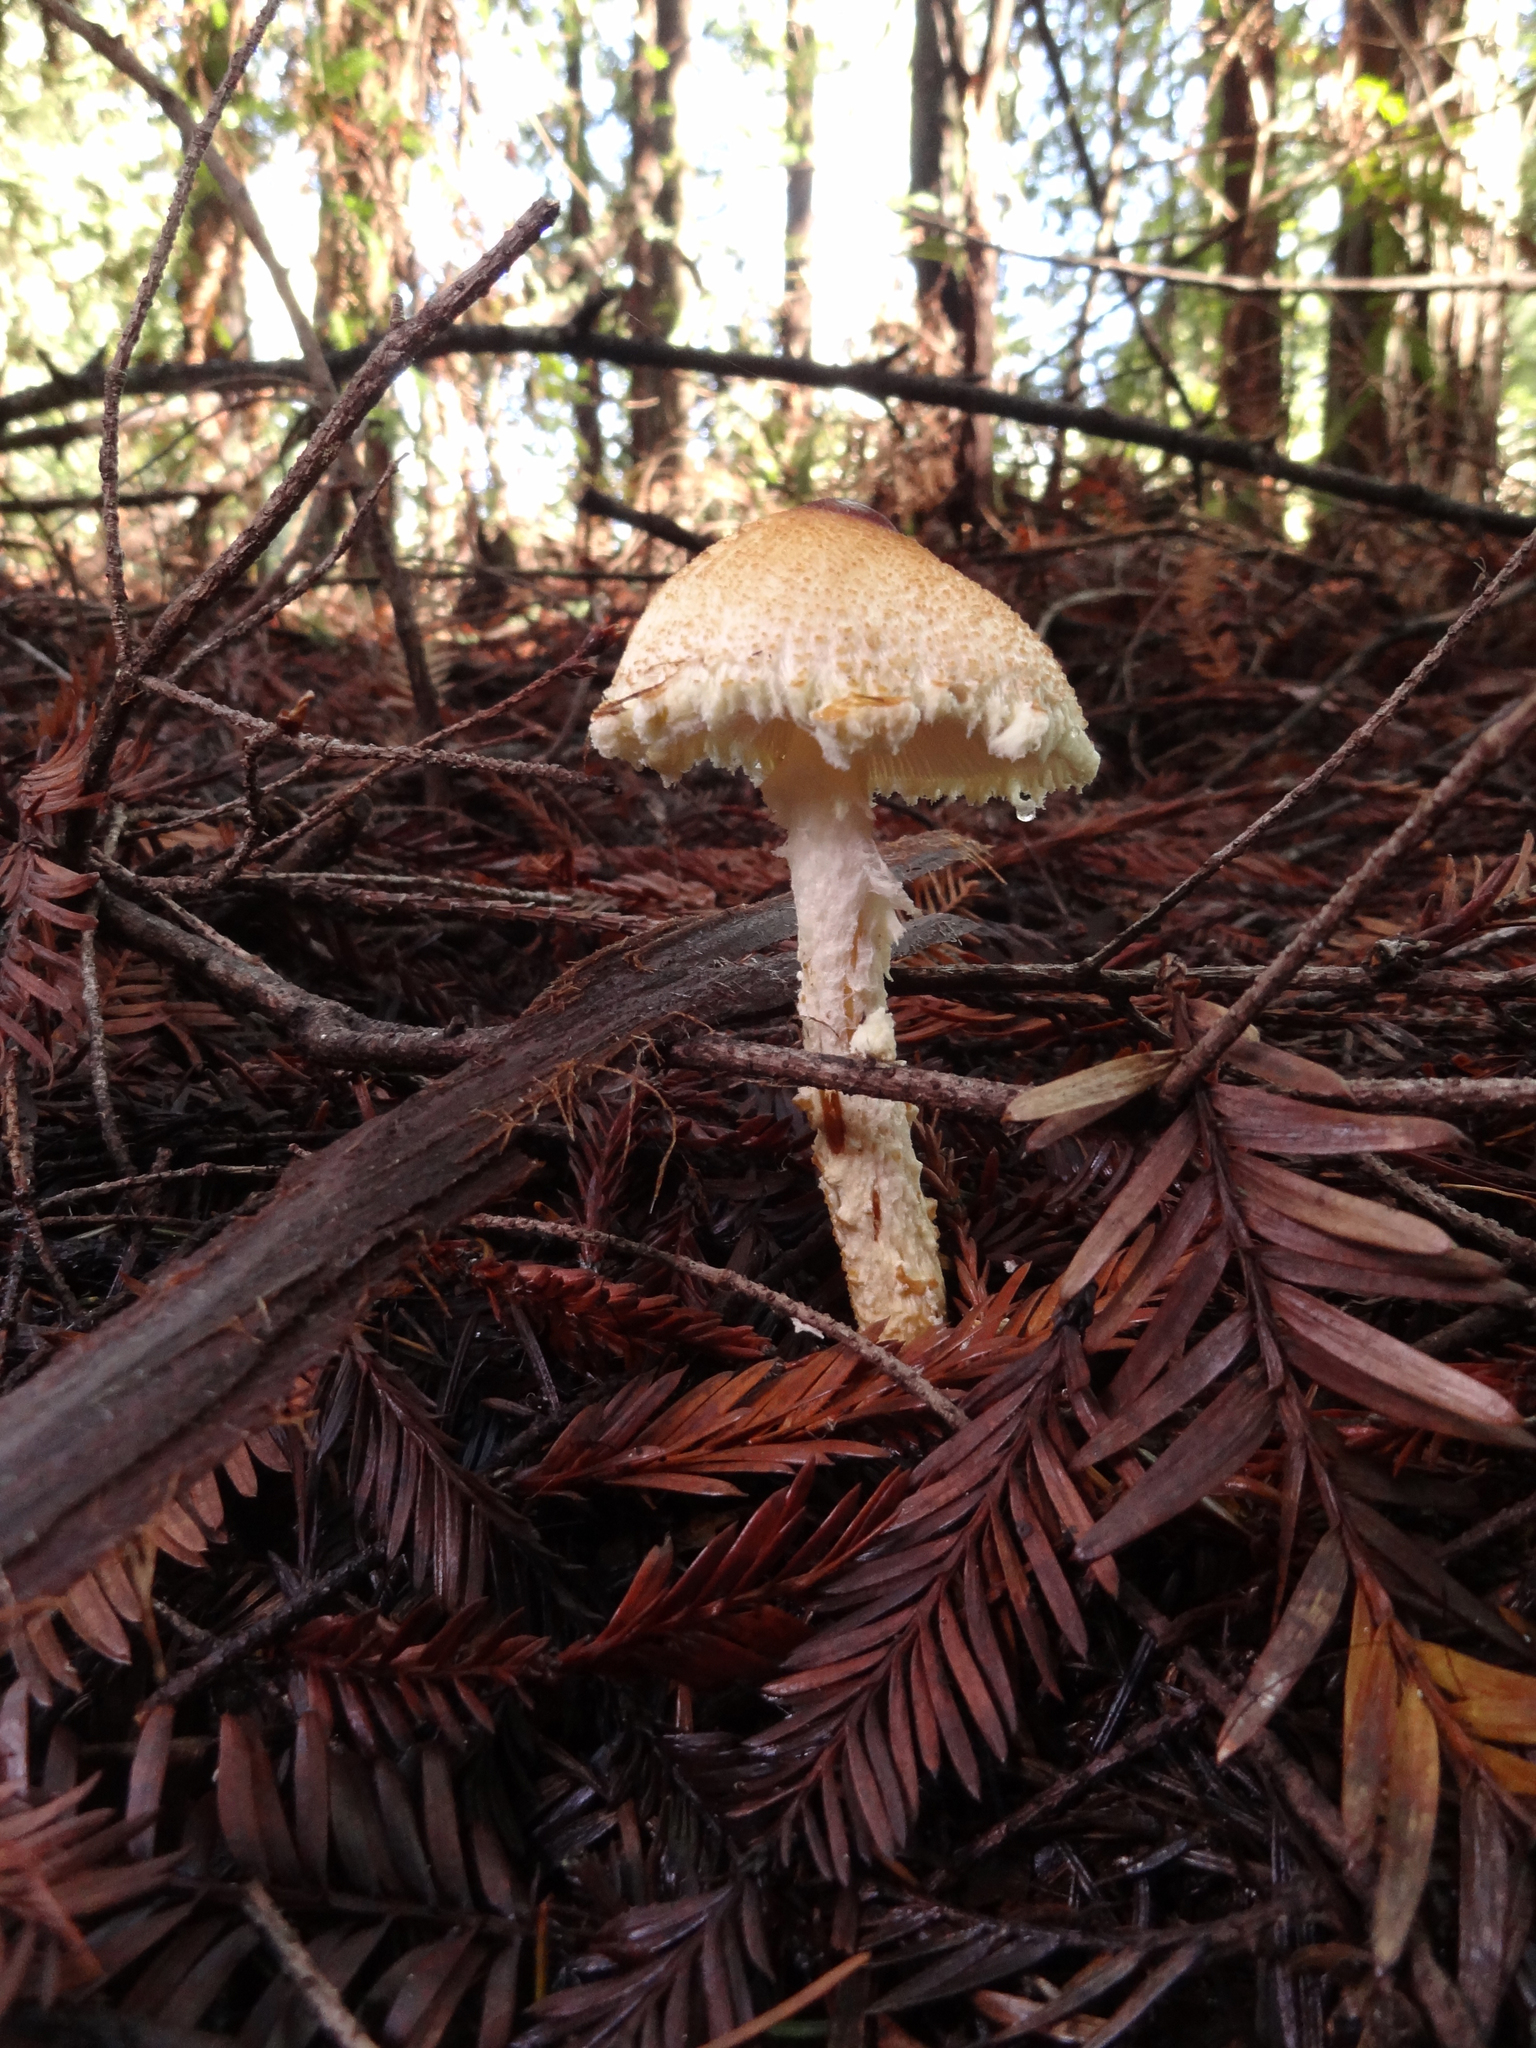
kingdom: Fungi
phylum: Basidiomycota
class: Agaricomycetes
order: Agaricales
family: Agaricaceae
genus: Lepiota
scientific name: Lepiota magnispora
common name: Yellowfoot dapperling
